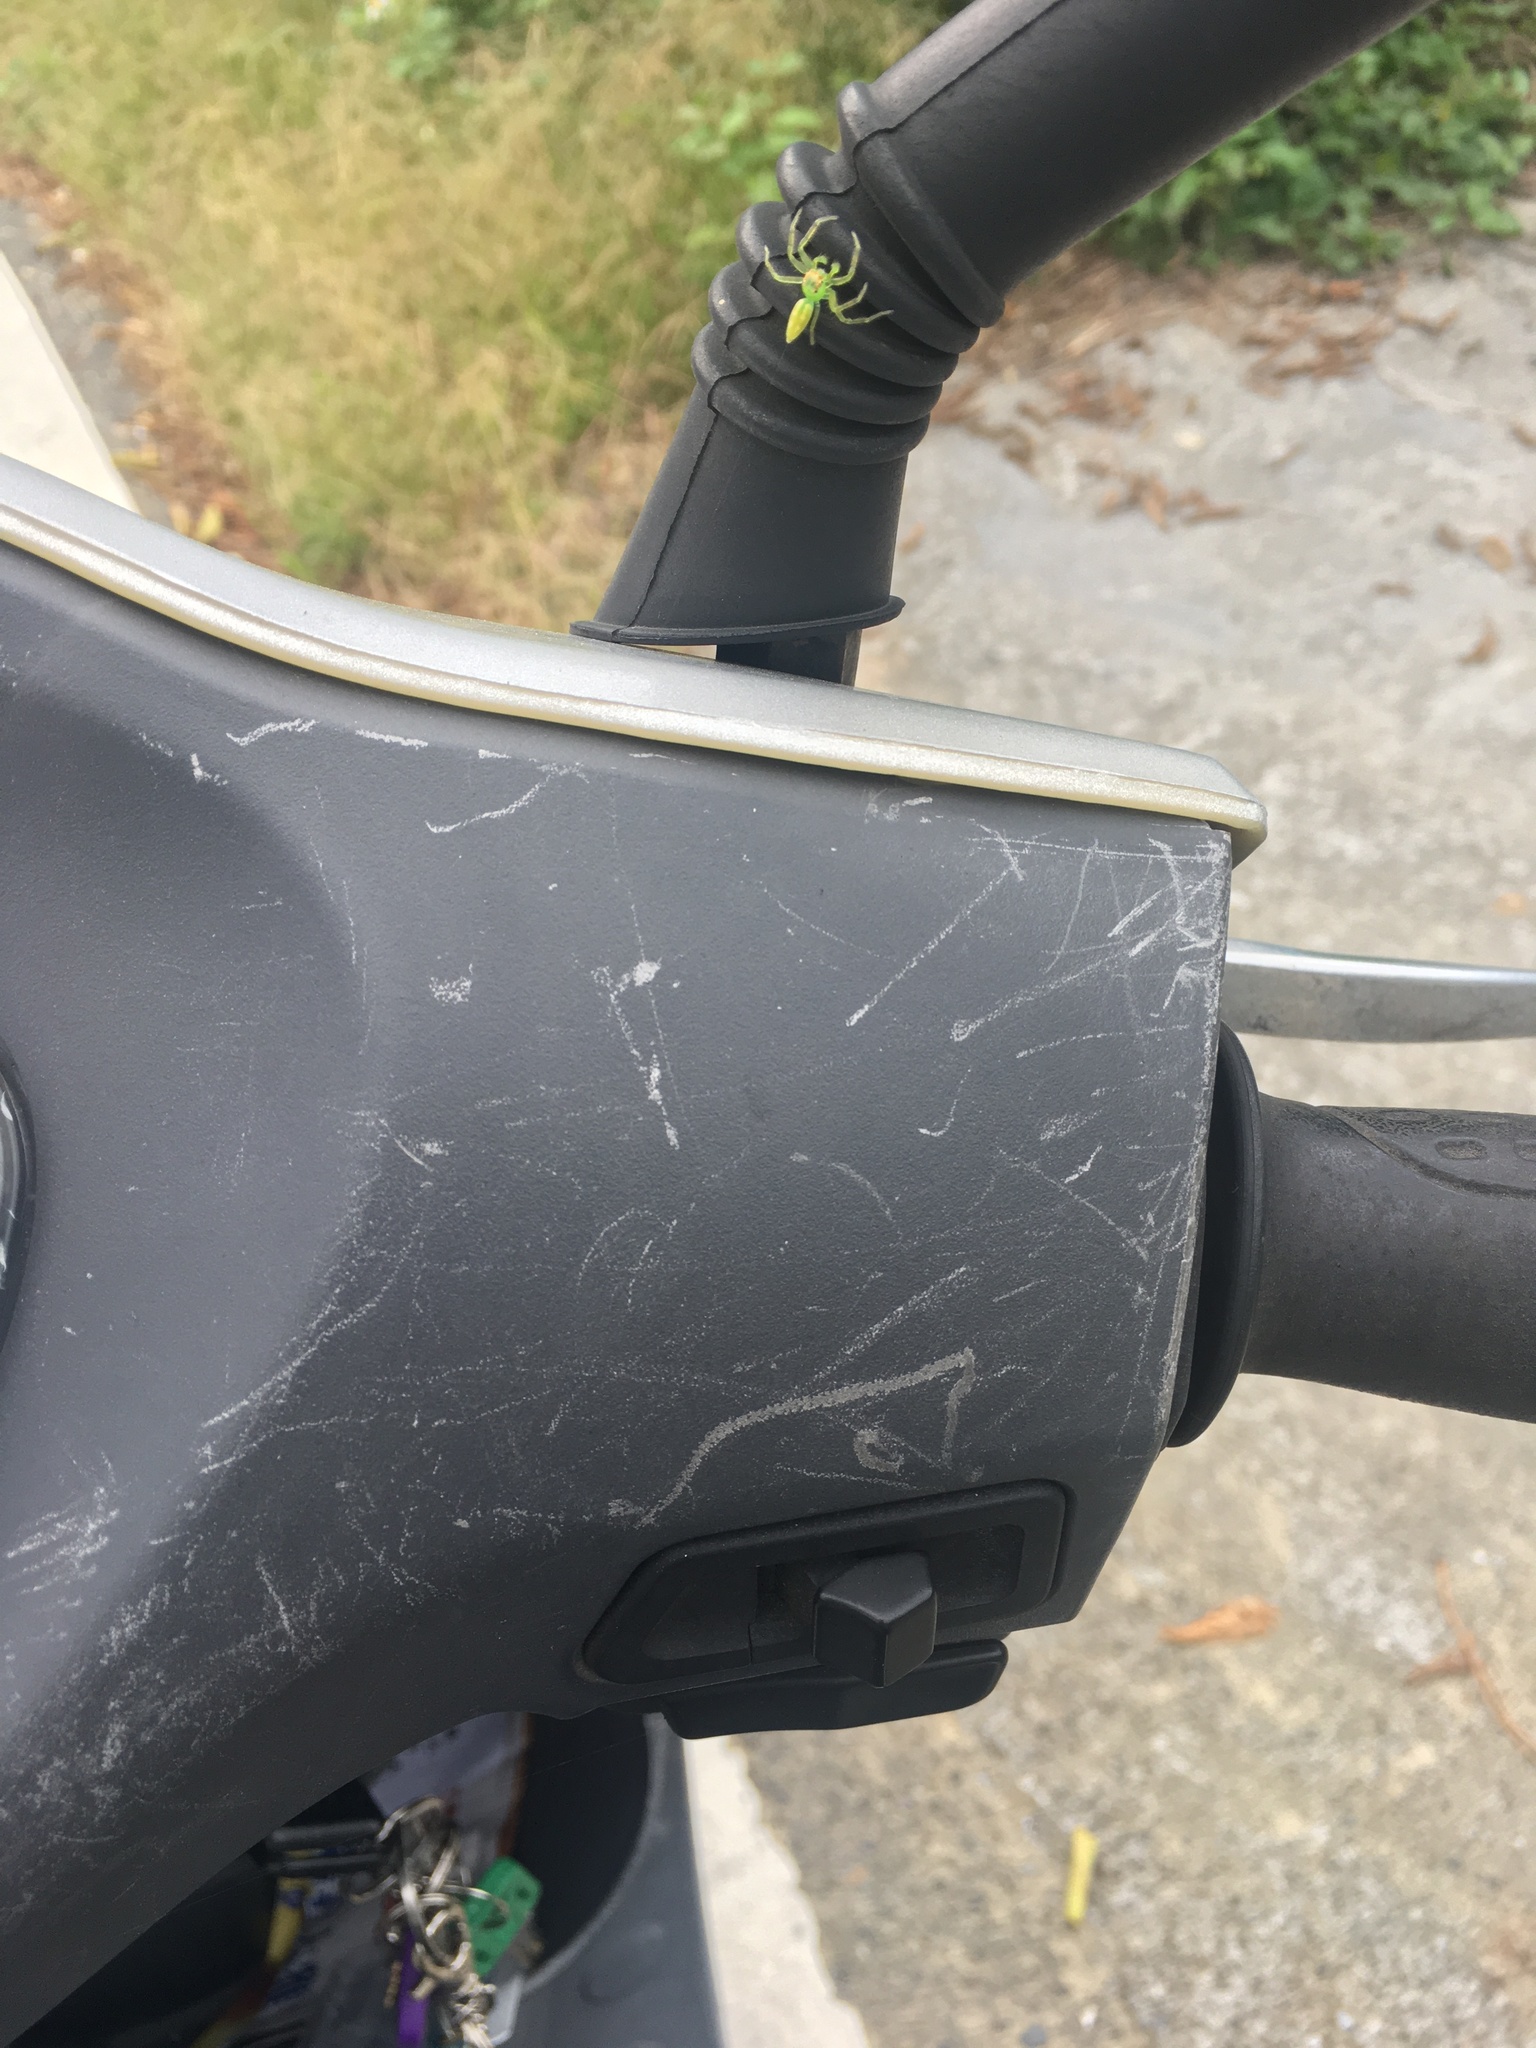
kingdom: Animalia
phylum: Arthropoda
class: Arachnida
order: Araneae
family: Salticidae
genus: Epeus
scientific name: Epeus glorius
